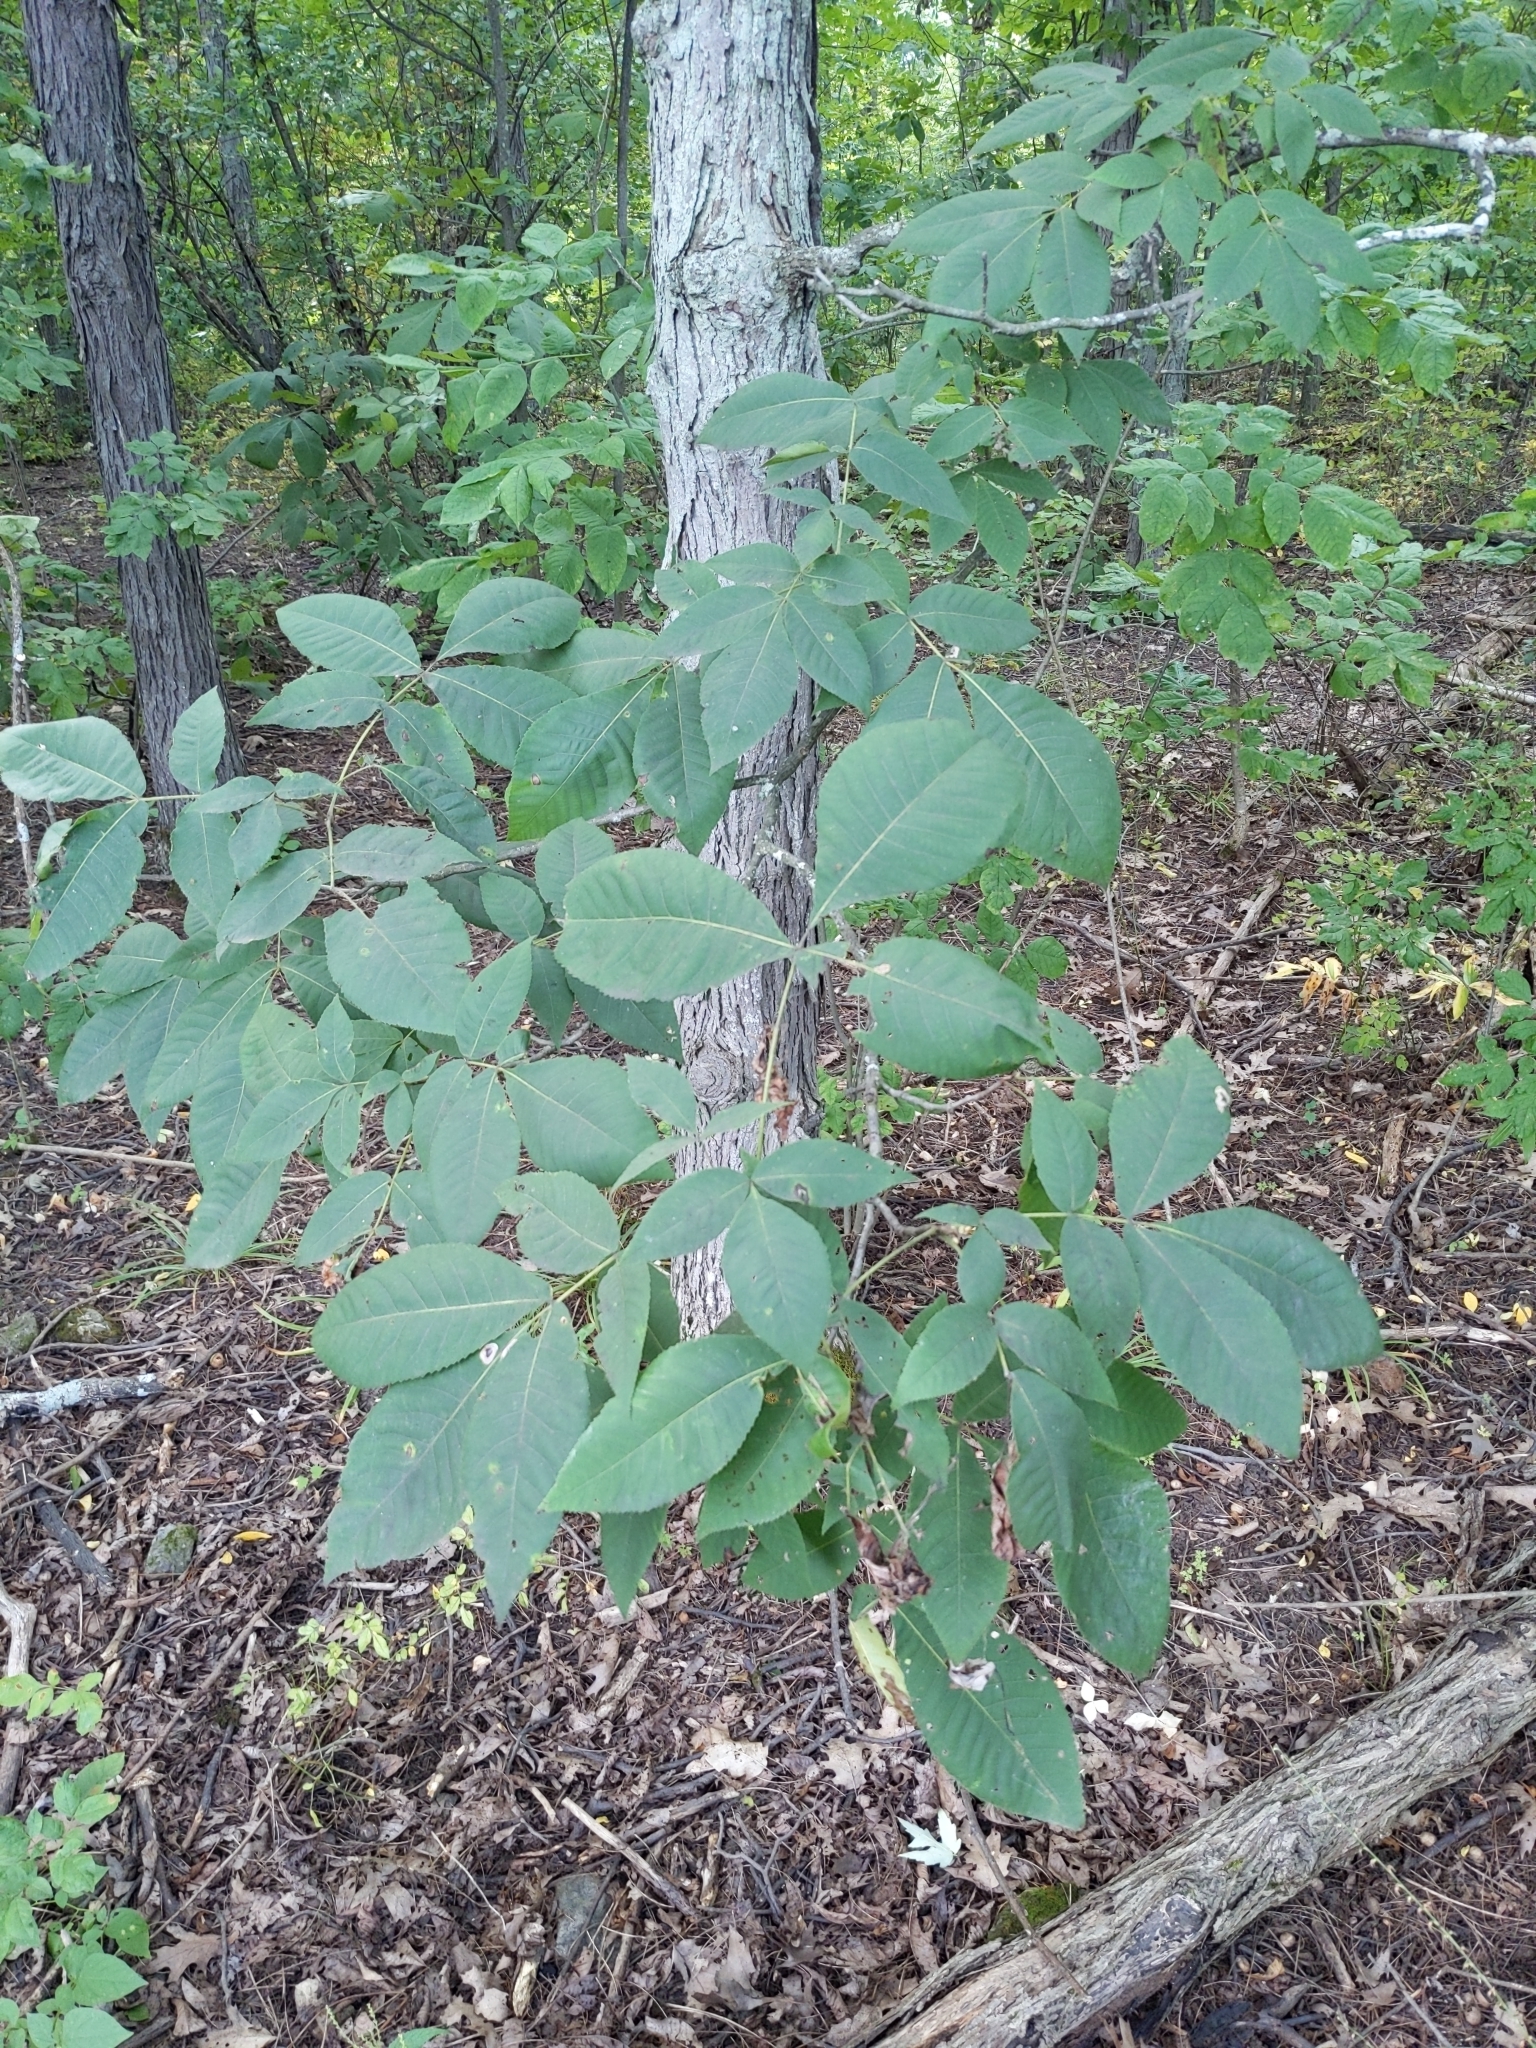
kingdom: Plantae
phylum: Tracheophyta
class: Magnoliopsida
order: Fagales
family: Juglandaceae
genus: Carya
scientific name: Carya ovata
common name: Shagbark hickory
